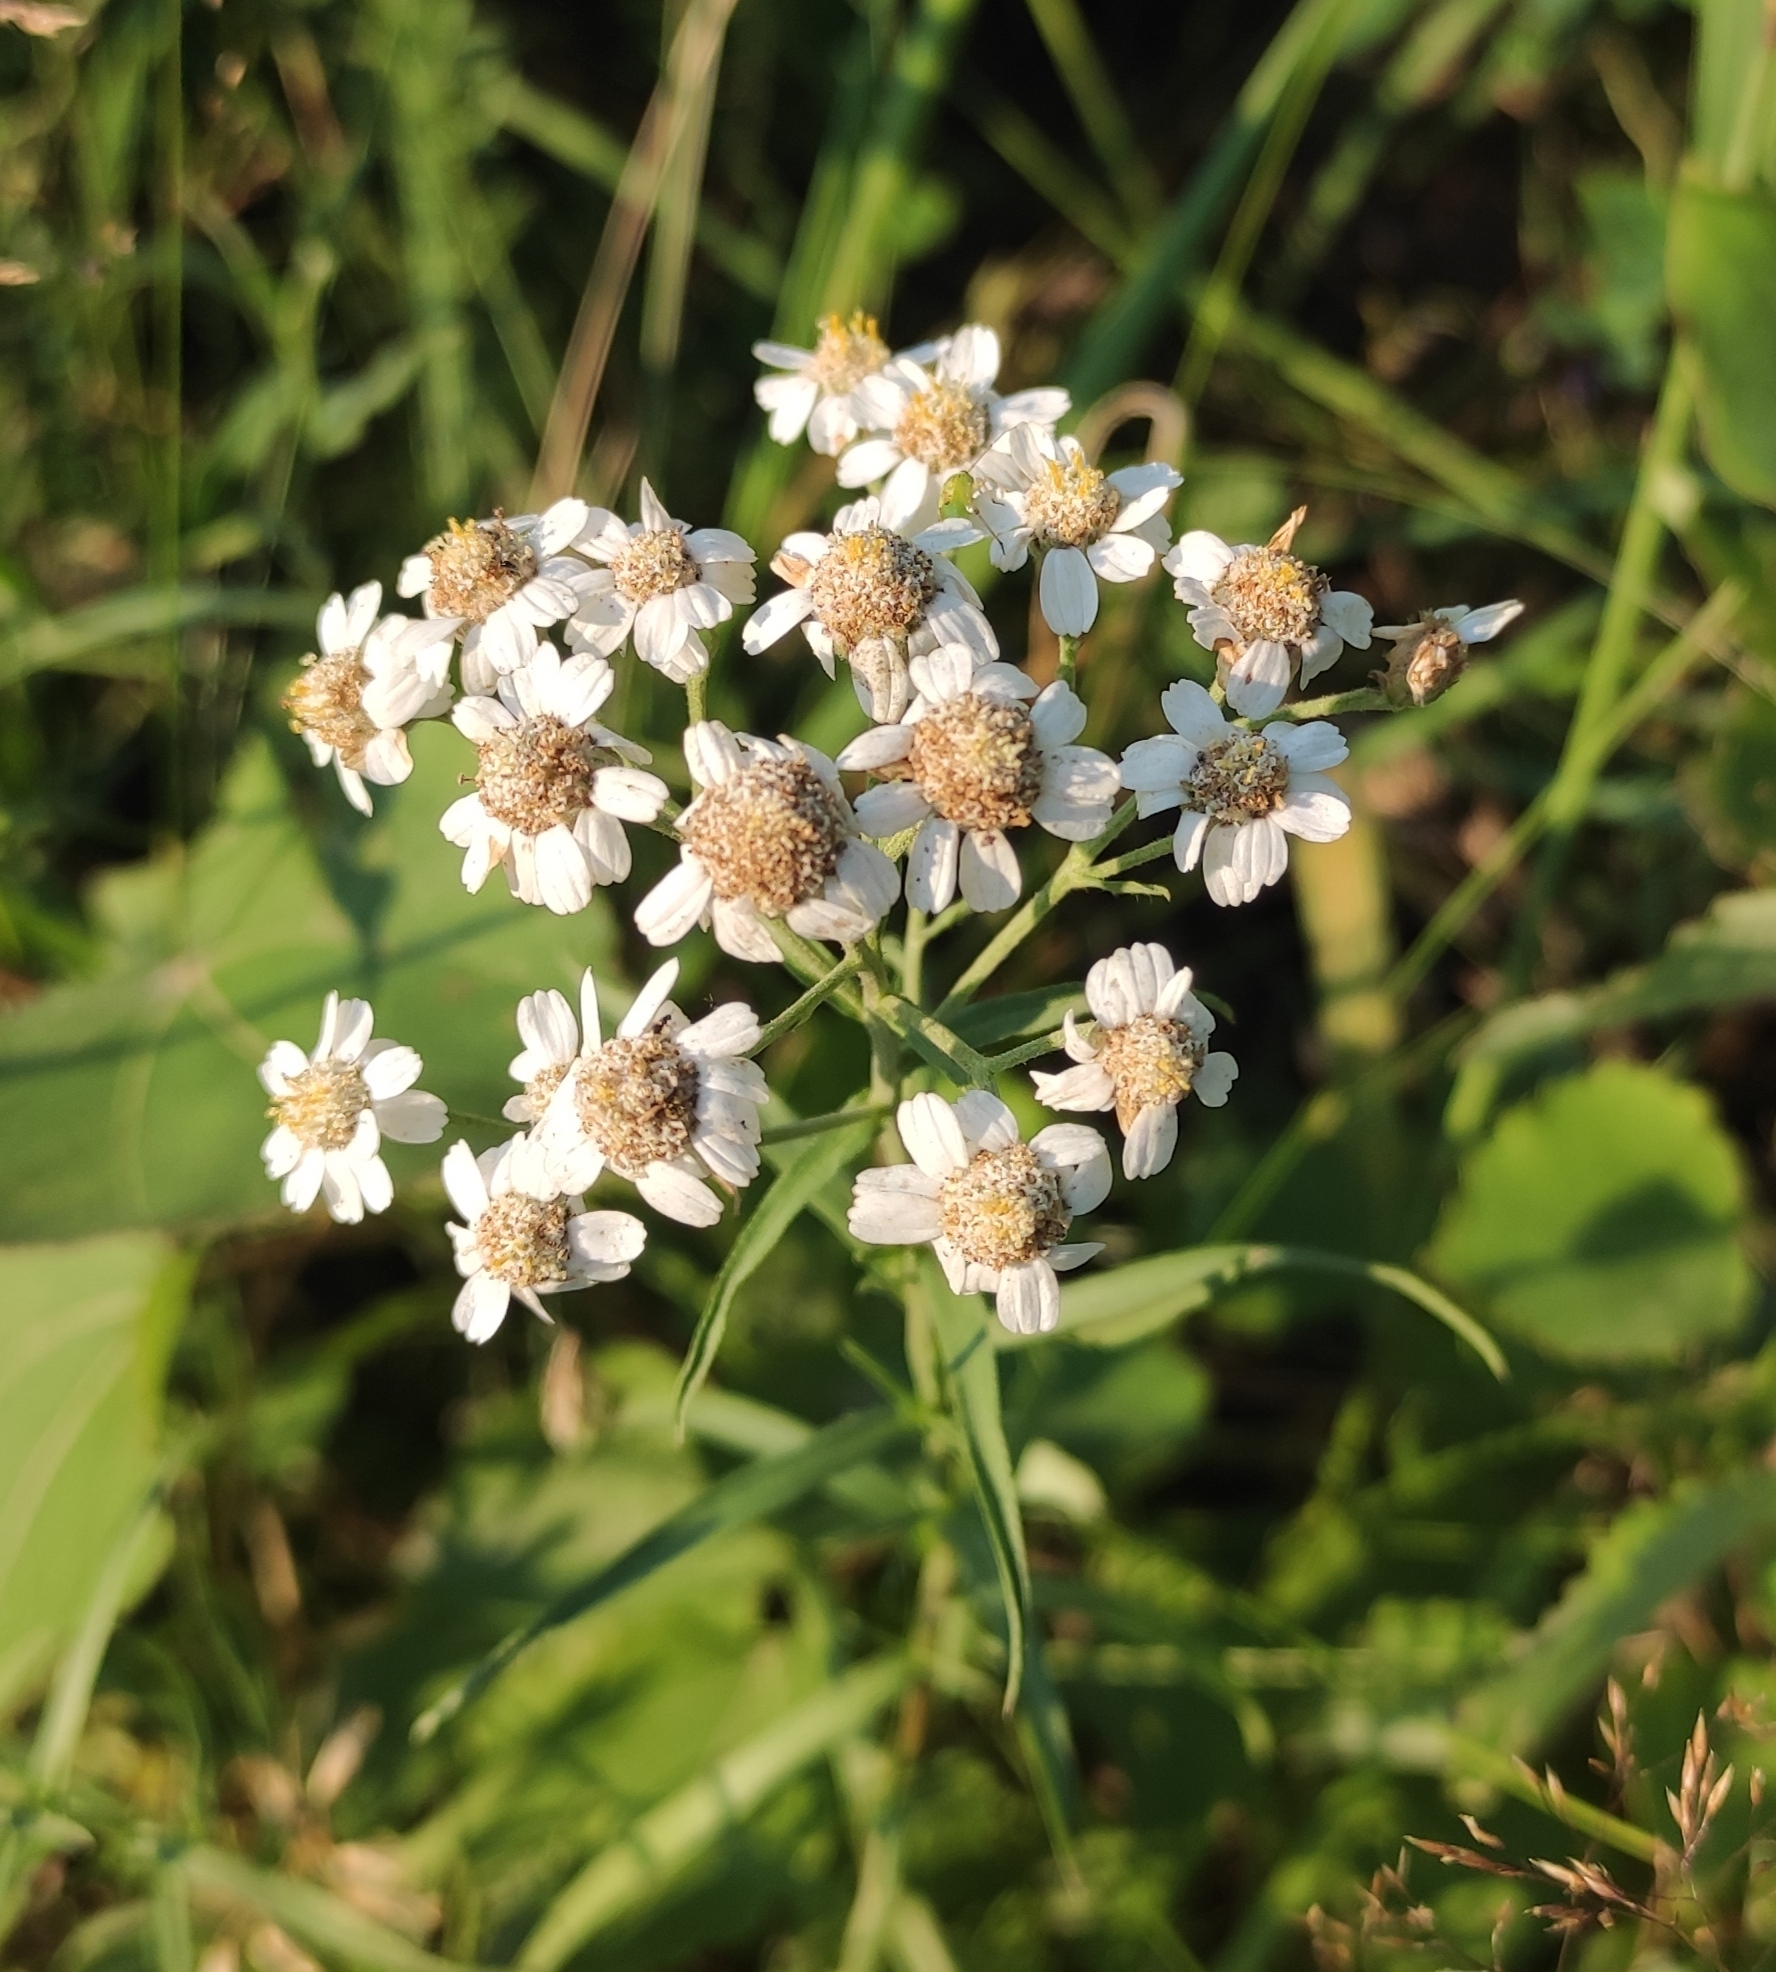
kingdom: Plantae
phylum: Tracheophyta
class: Magnoliopsida
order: Asterales
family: Asteraceae
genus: Achillea
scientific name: Achillea ptarmica
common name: Sneezeweed
